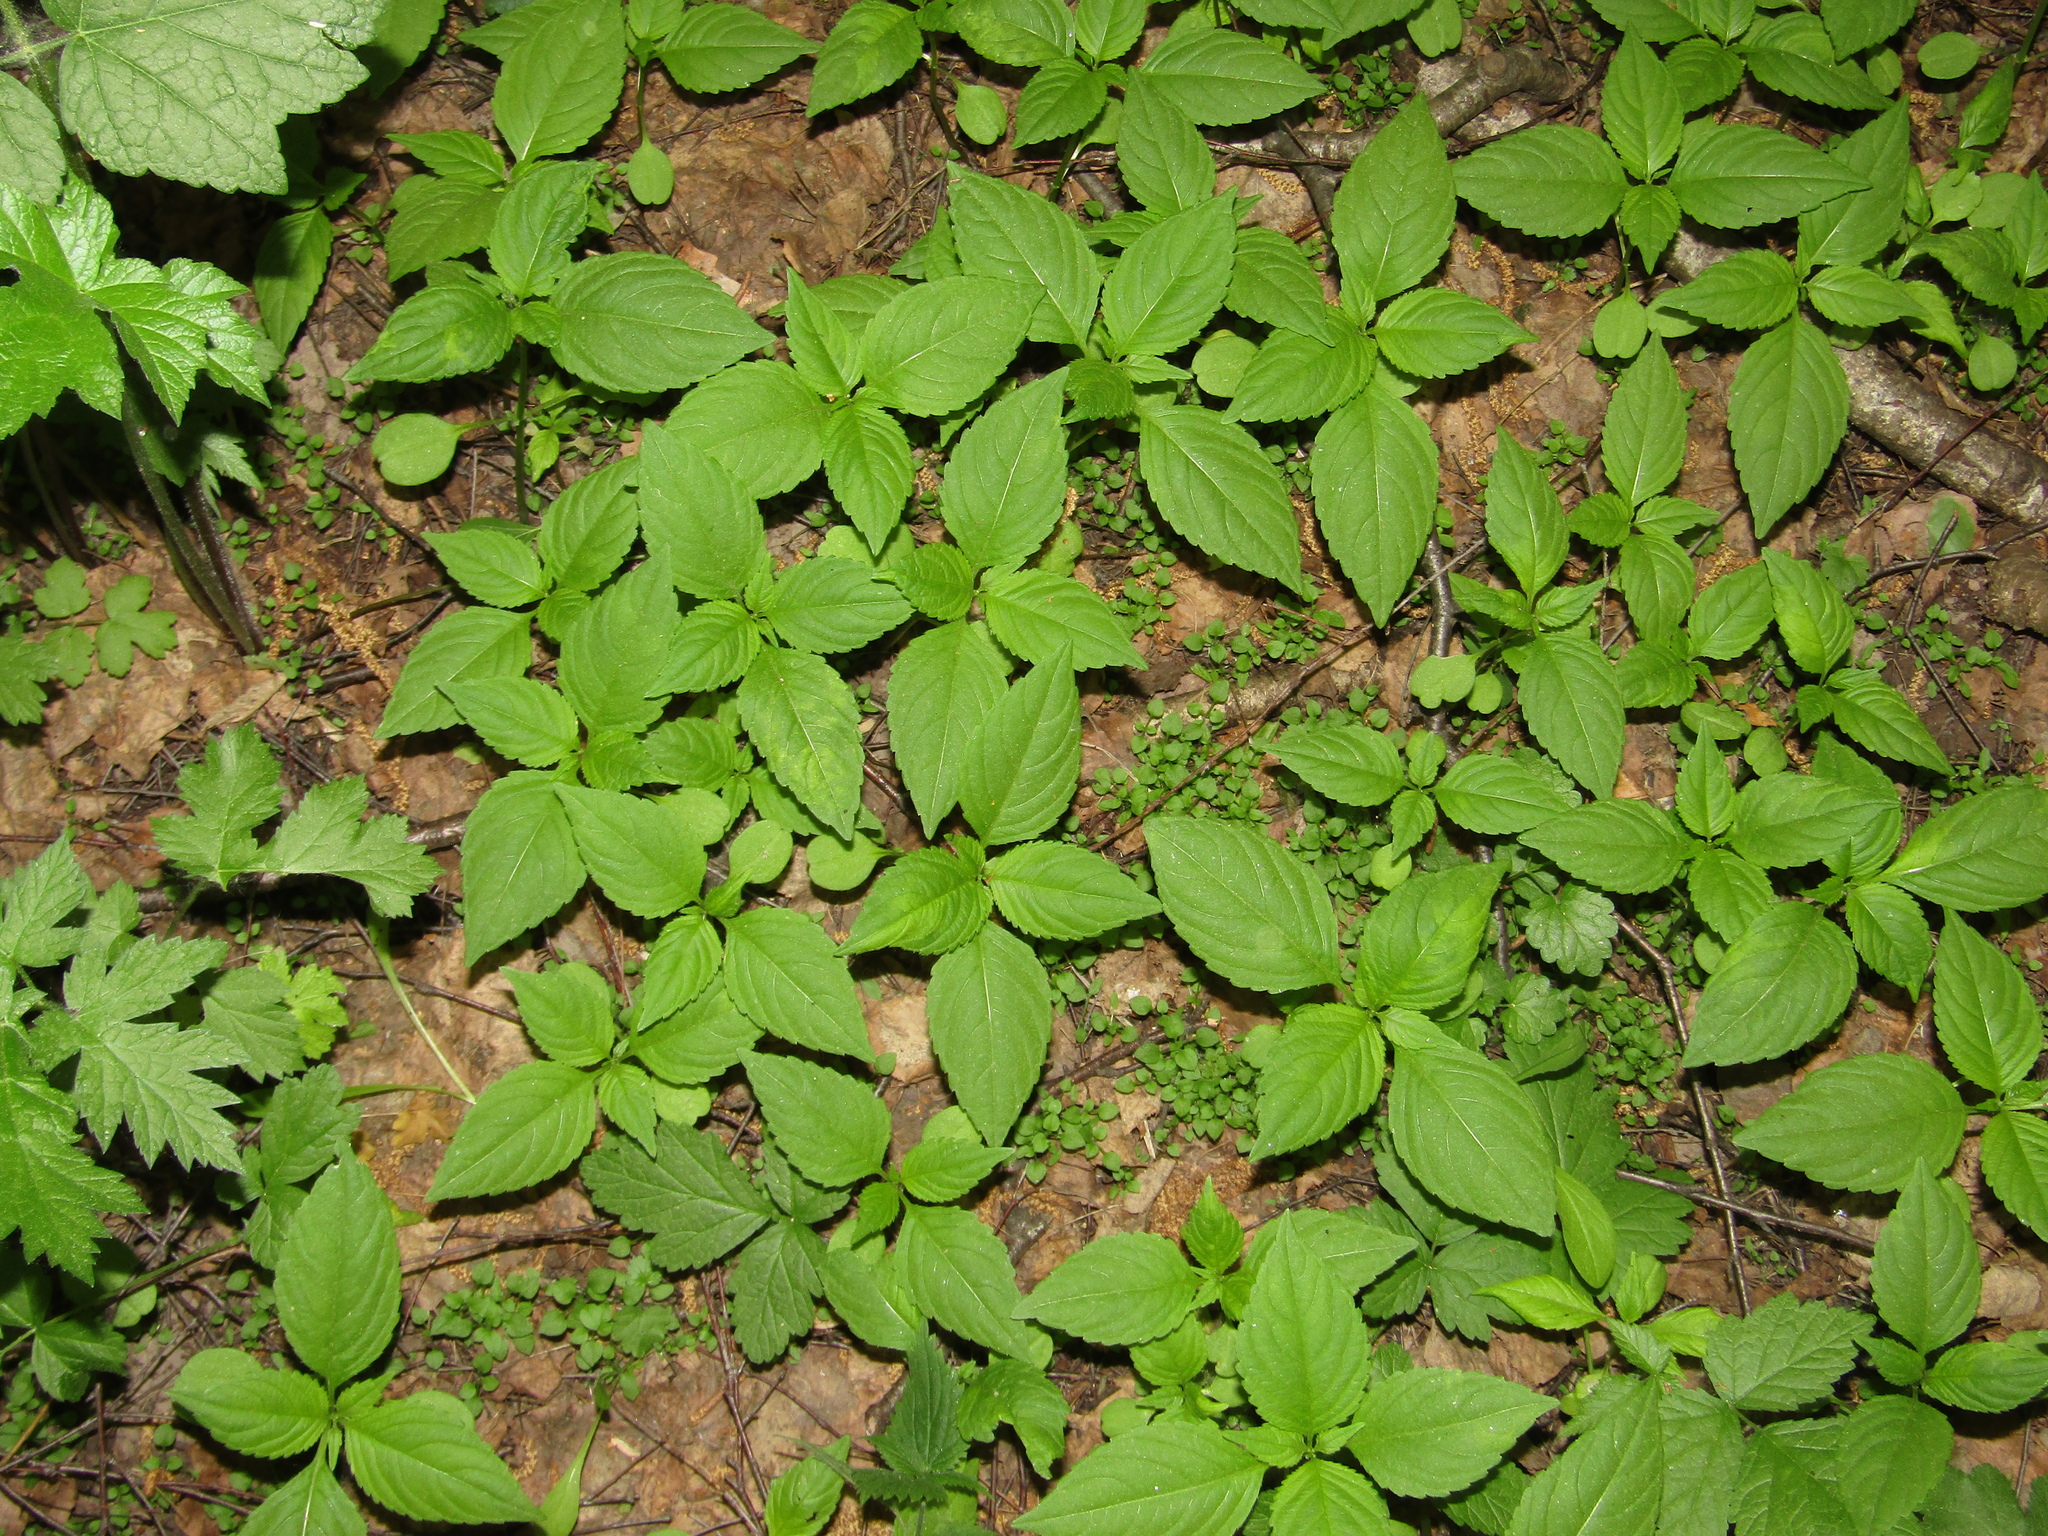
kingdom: Plantae
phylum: Tracheophyta
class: Magnoliopsida
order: Ericales
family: Balsaminaceae
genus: Impatiens
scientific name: Impatiens parviflora
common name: Small balsam
